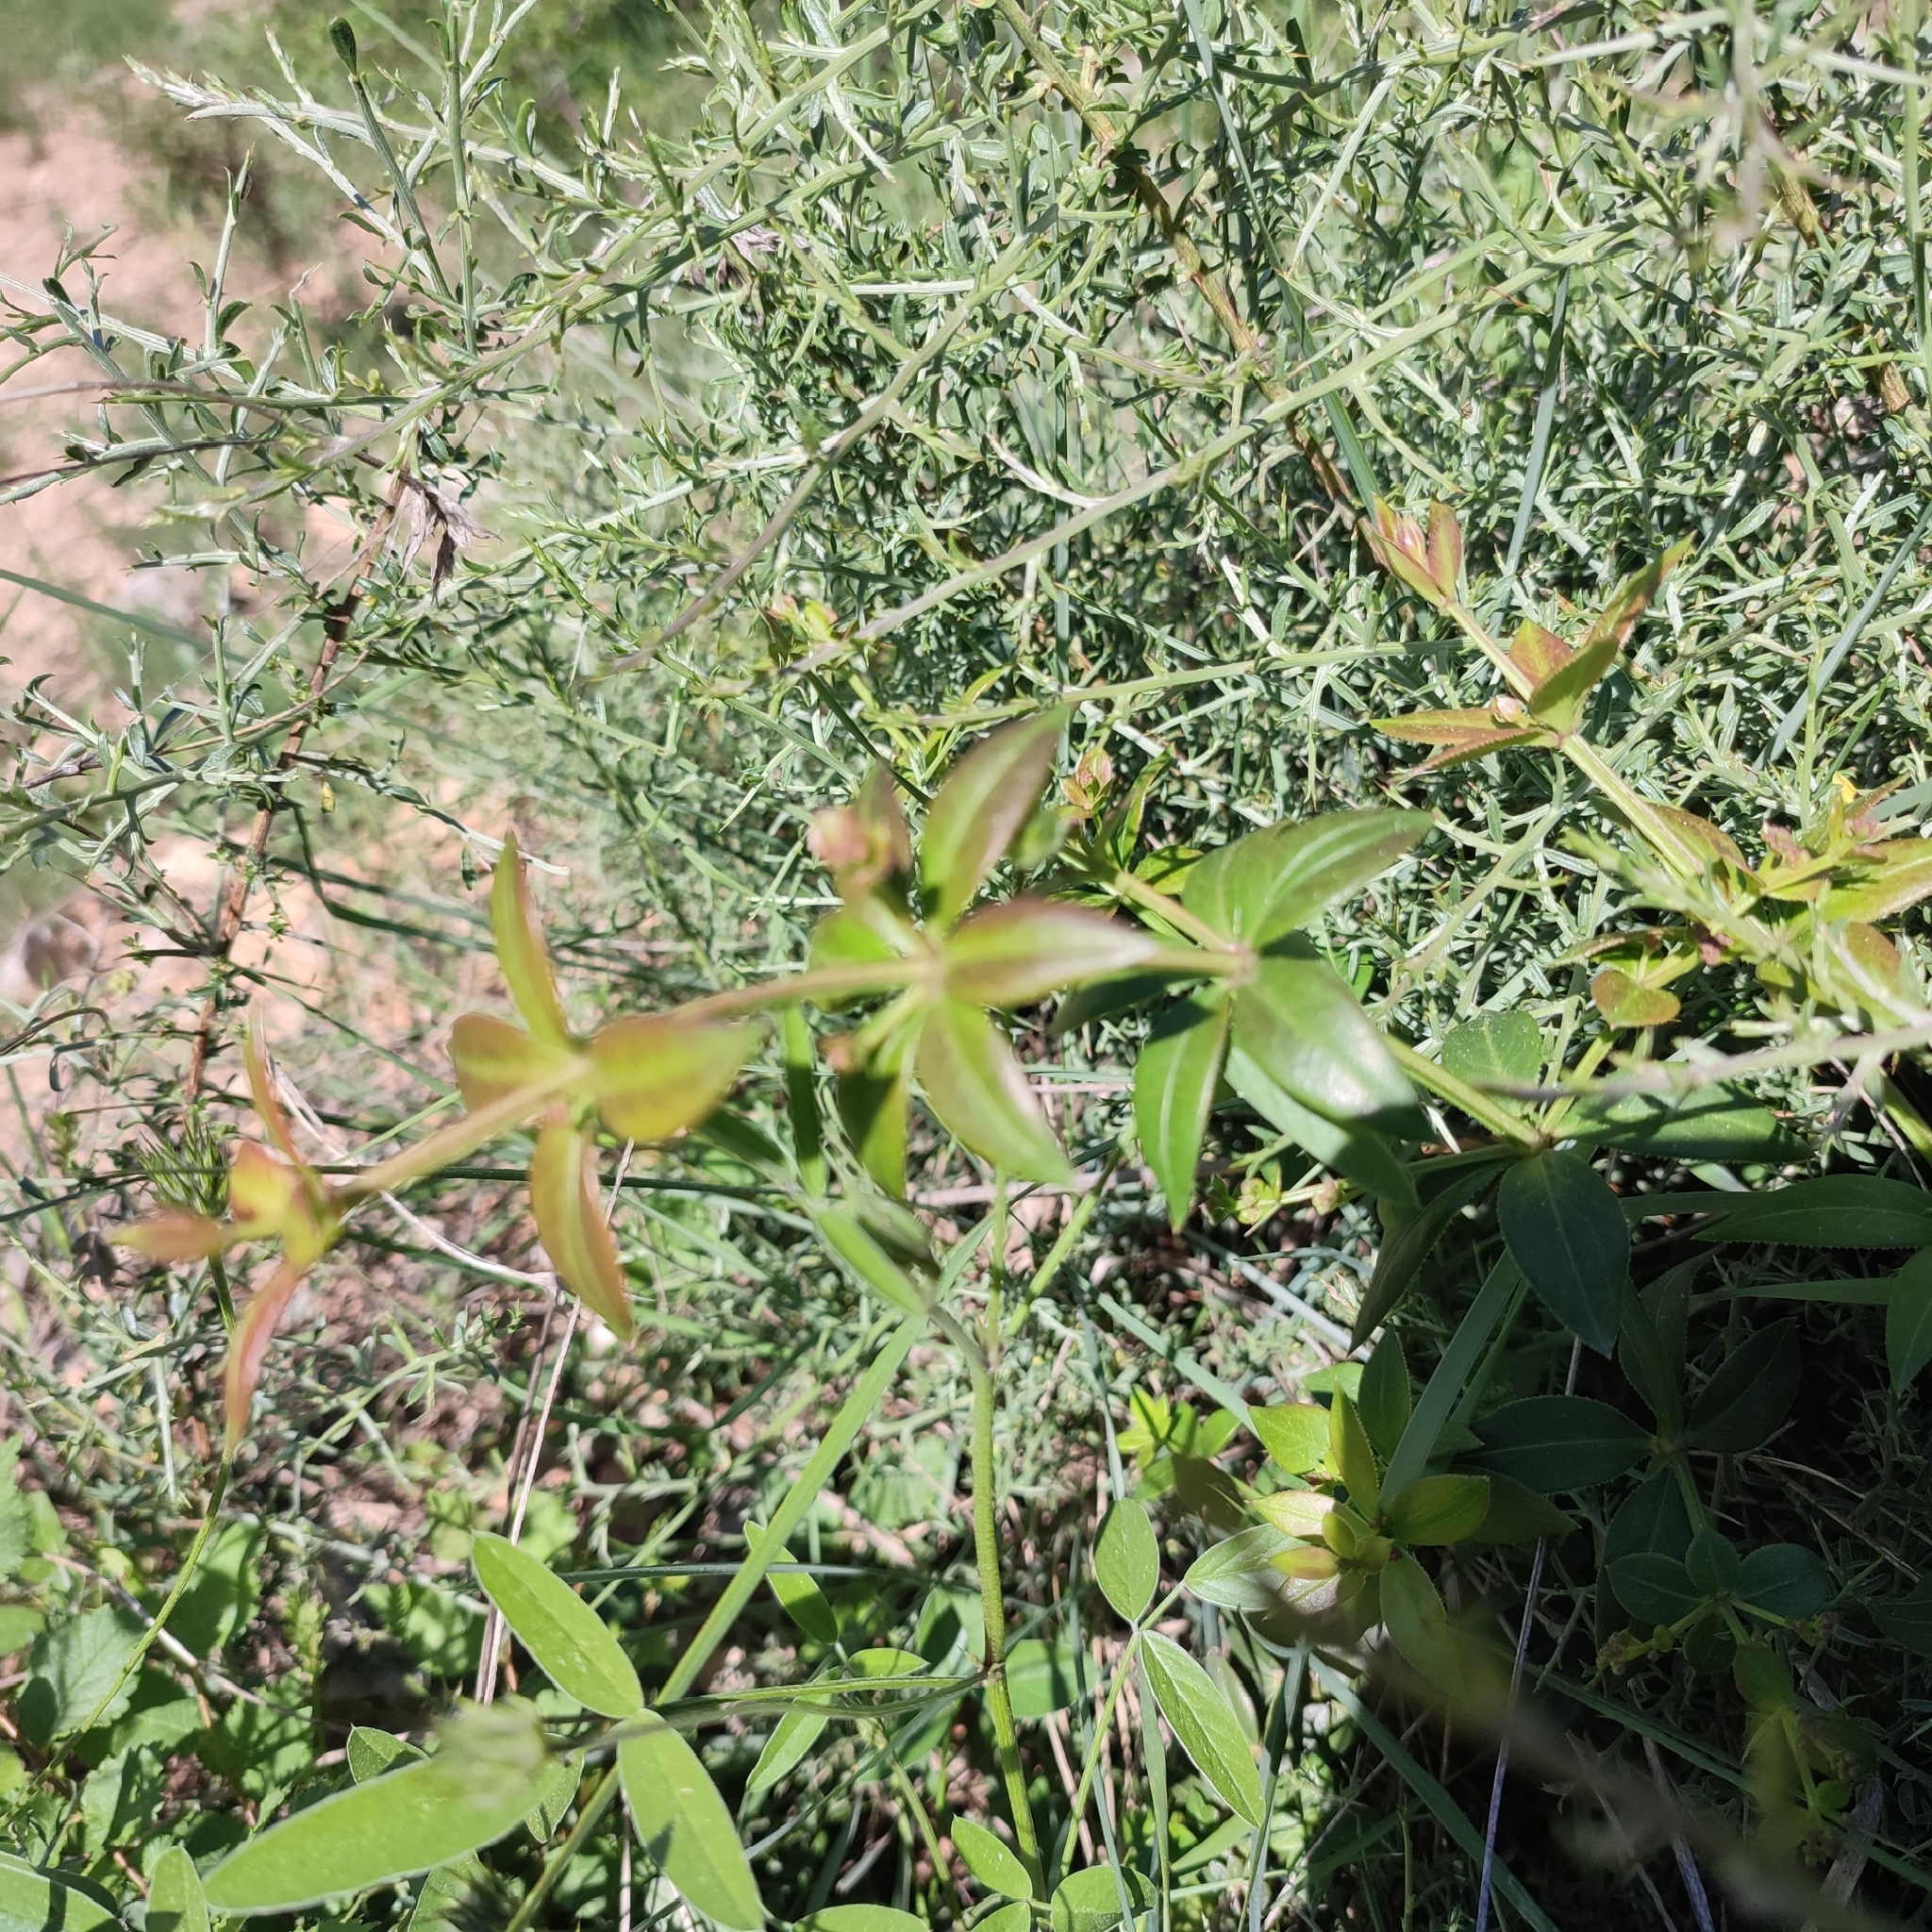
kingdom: Plantae
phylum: Tracheophyta
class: Magnoliopsida
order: Gentianales
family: Rubiaceae
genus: Rubia
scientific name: Rubia peregrina
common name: Wild madder
